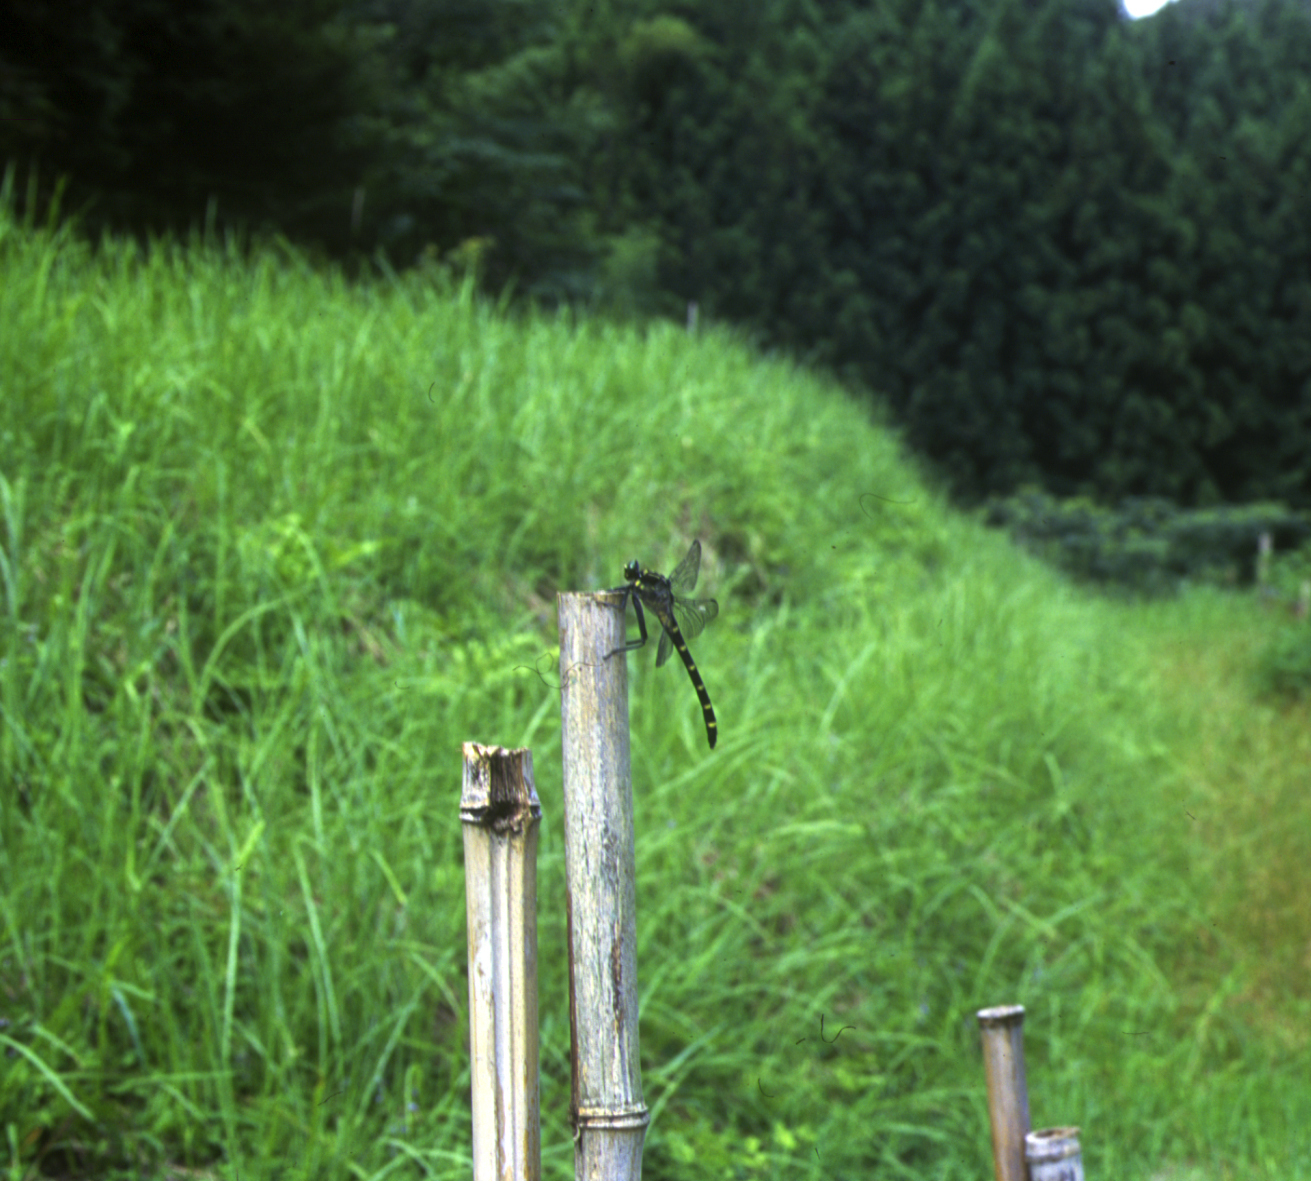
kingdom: Animalia
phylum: Arthropoda
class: Insecta
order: Odonata
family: Gomphidae
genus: Sieboldius
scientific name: Sieboldius albardae
